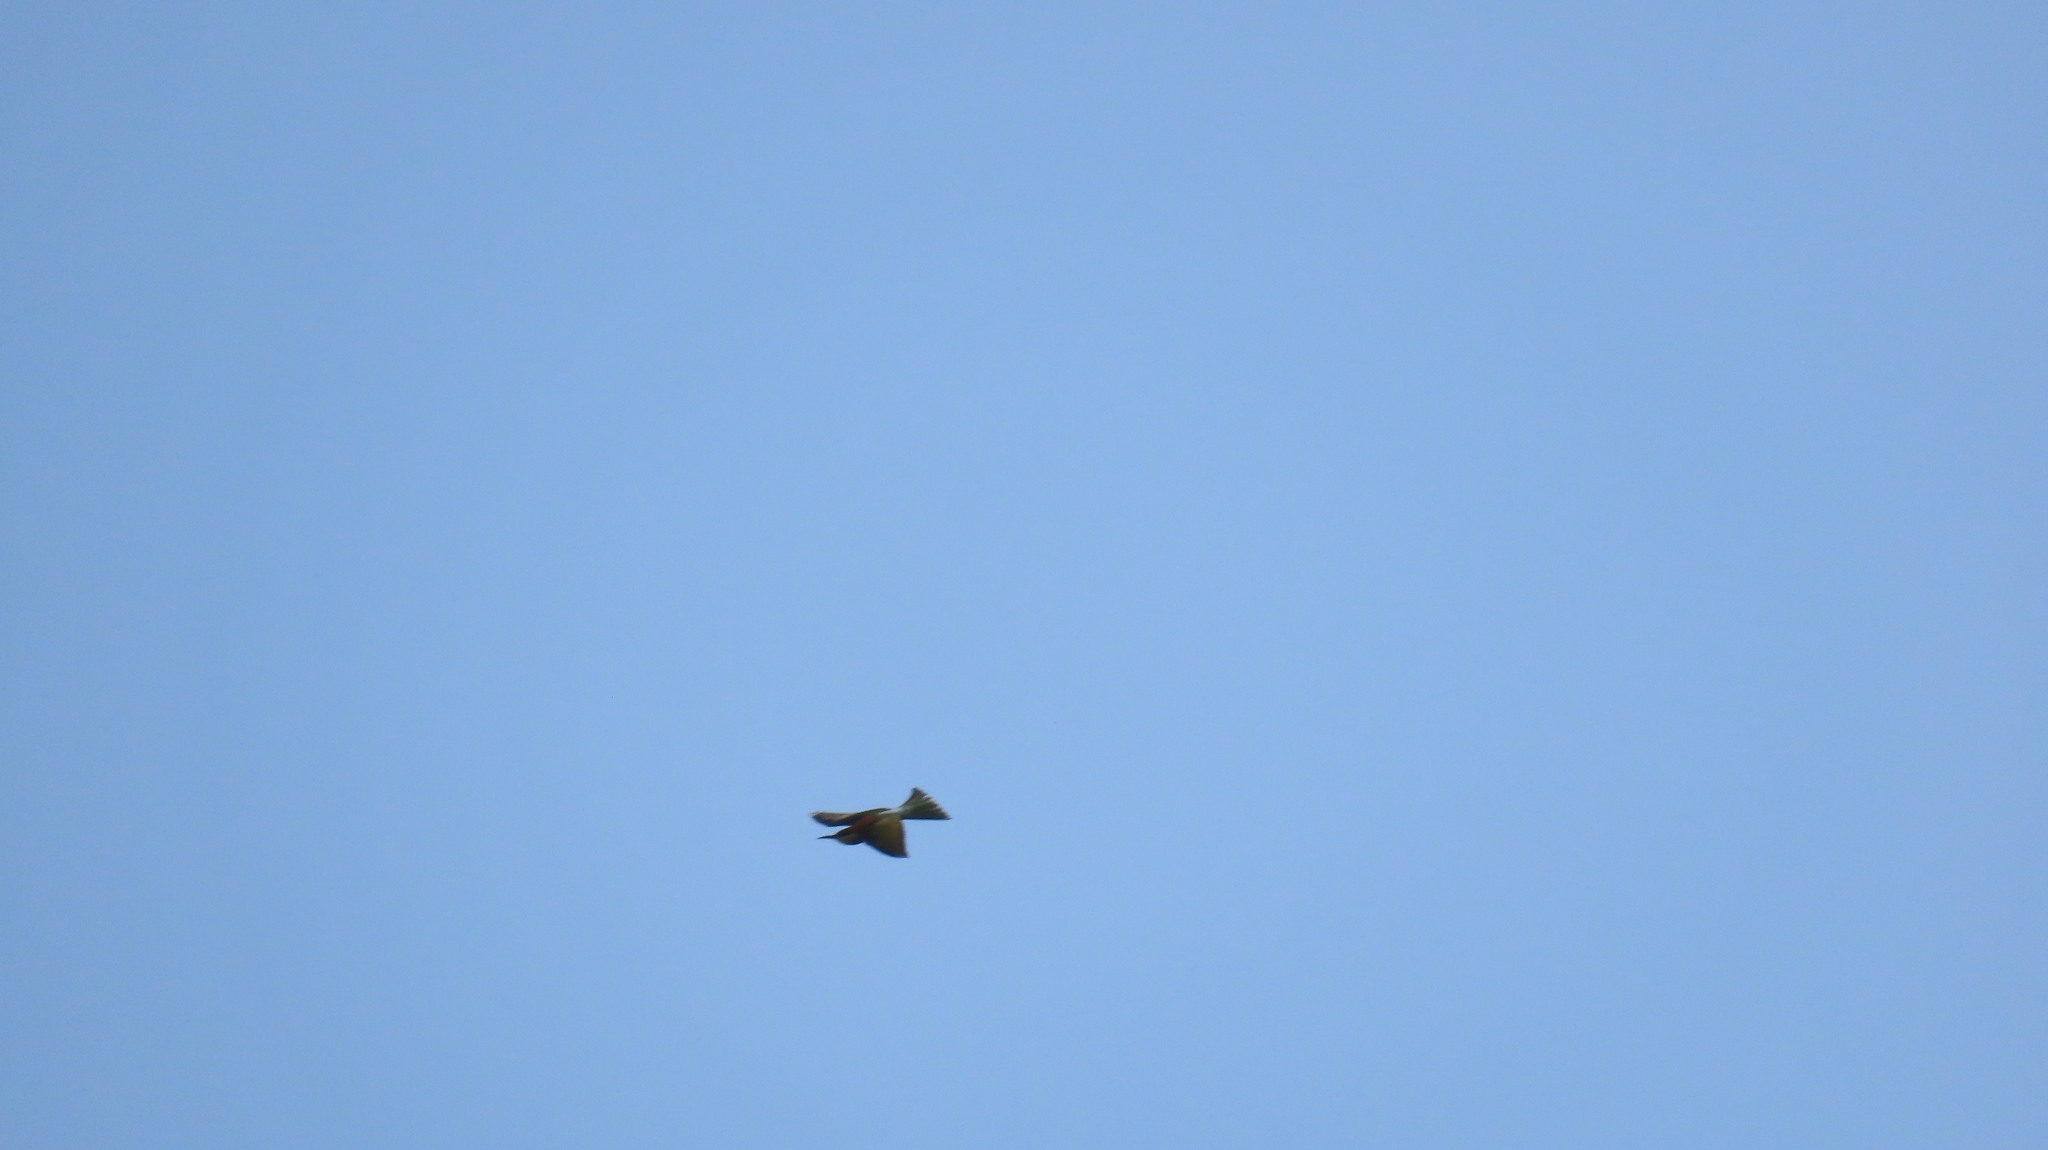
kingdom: Animalia
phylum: Chordata
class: Aves
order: Coraciiformes
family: Meropidae
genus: Merops
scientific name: Merops leschenaulti
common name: Chestnut-headed bee-eater
